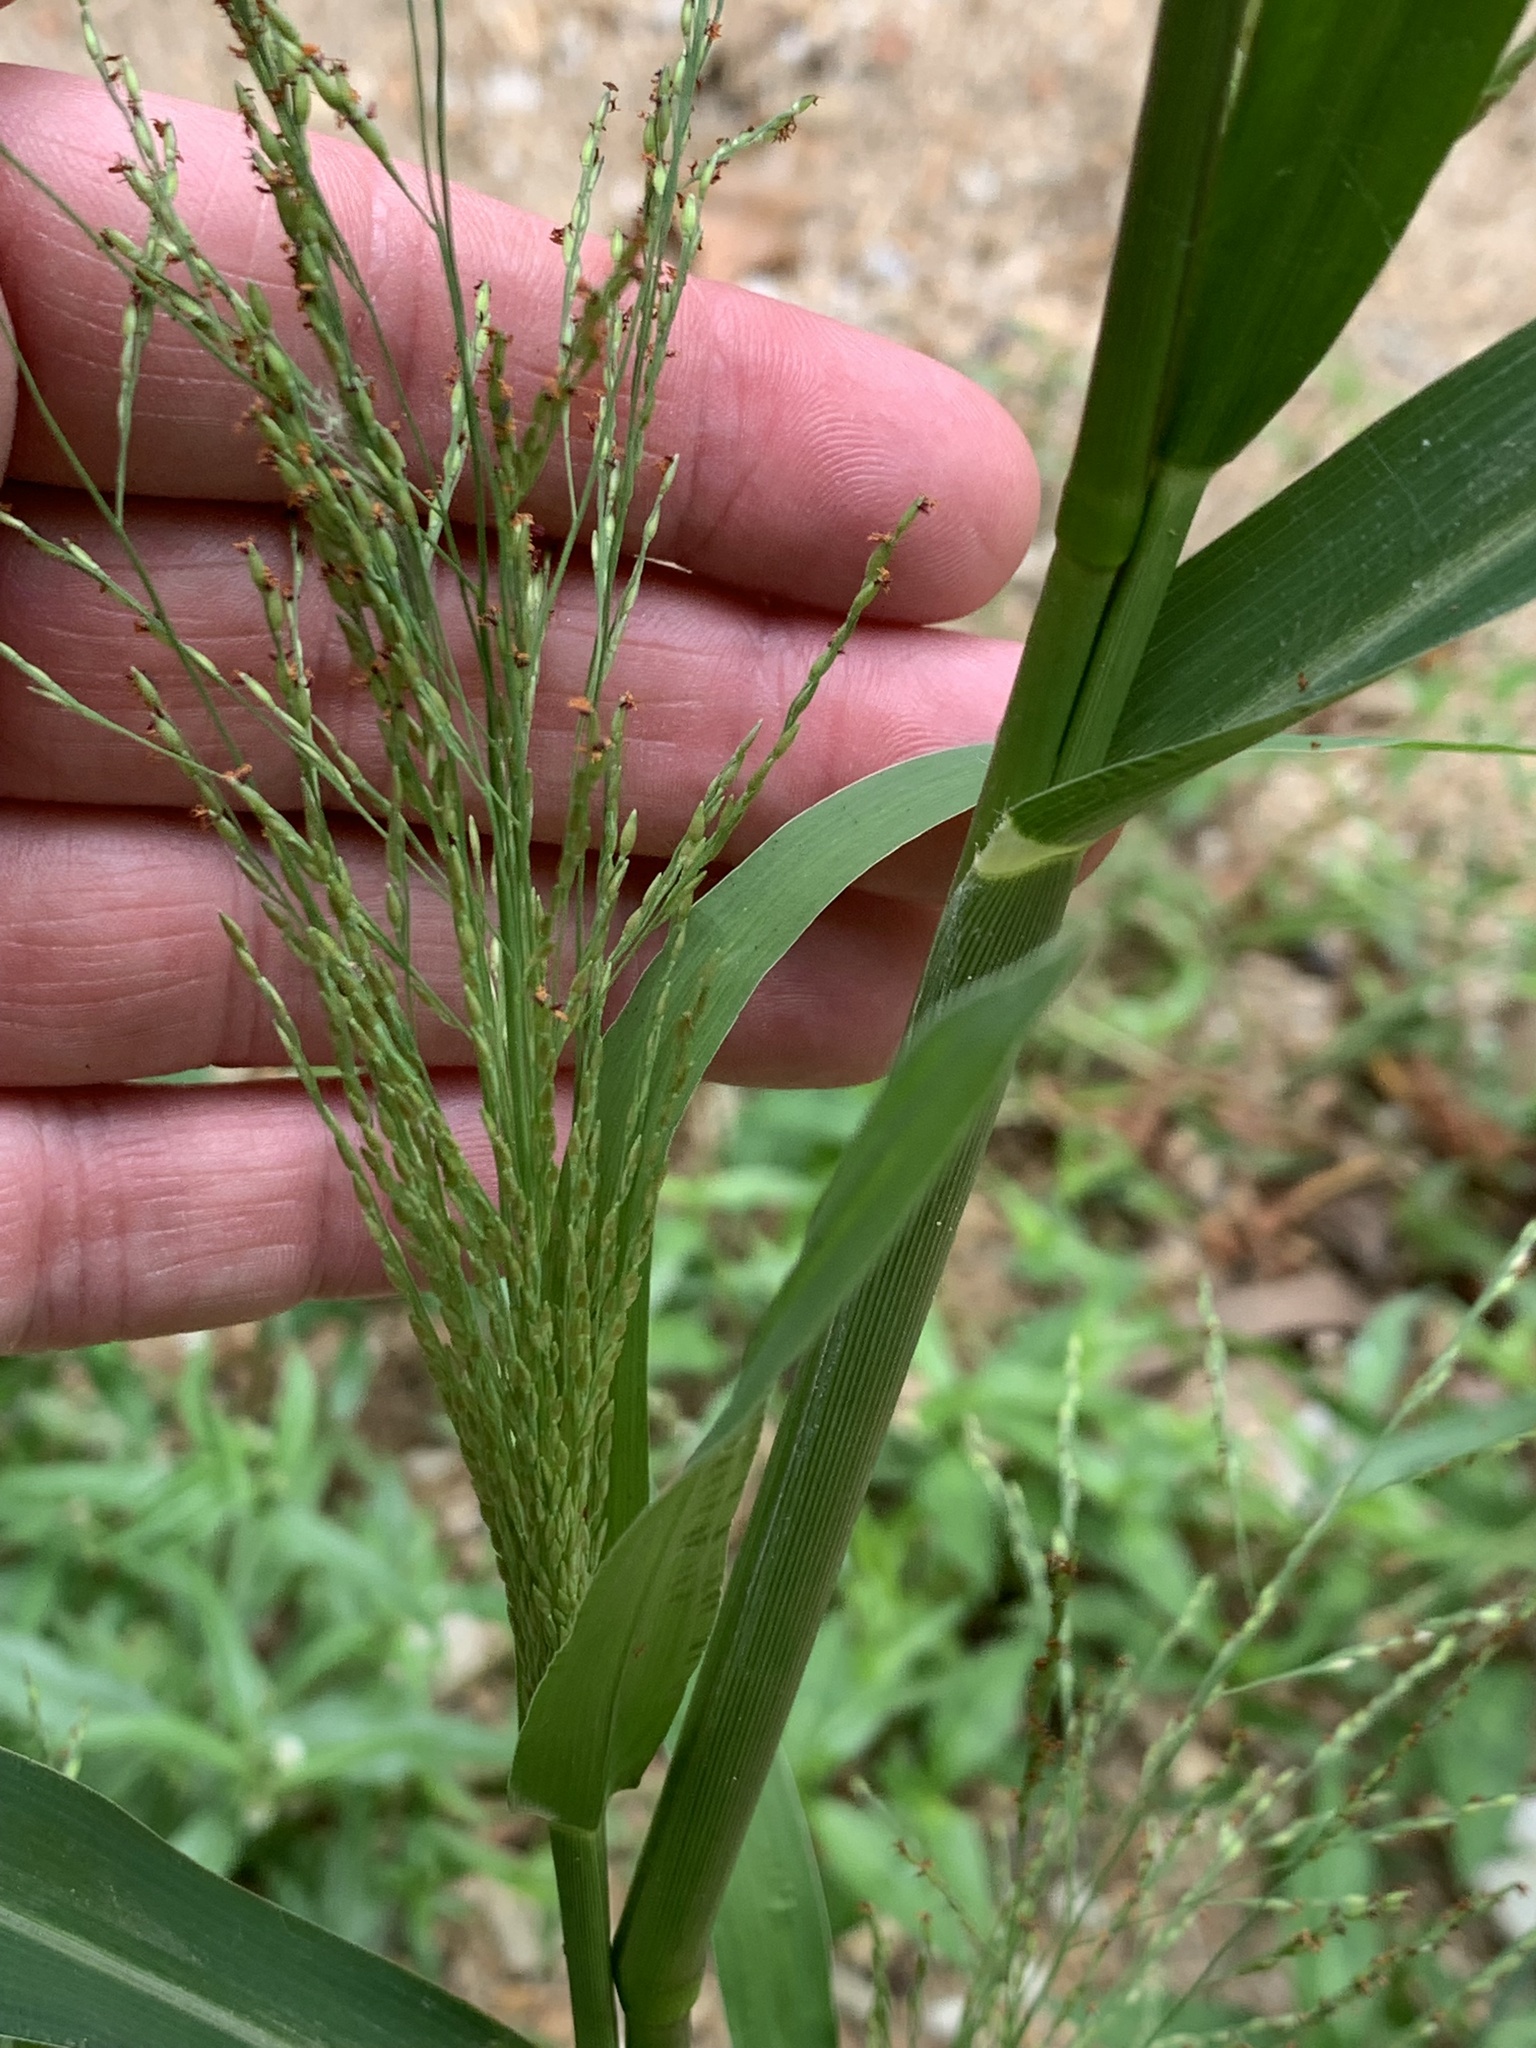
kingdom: Plantae
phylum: Tracheophyta
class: Liliopsida
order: Poales
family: Poaceae
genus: Panicum
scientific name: Panicum dichotomiflorum
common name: Autumn millet
